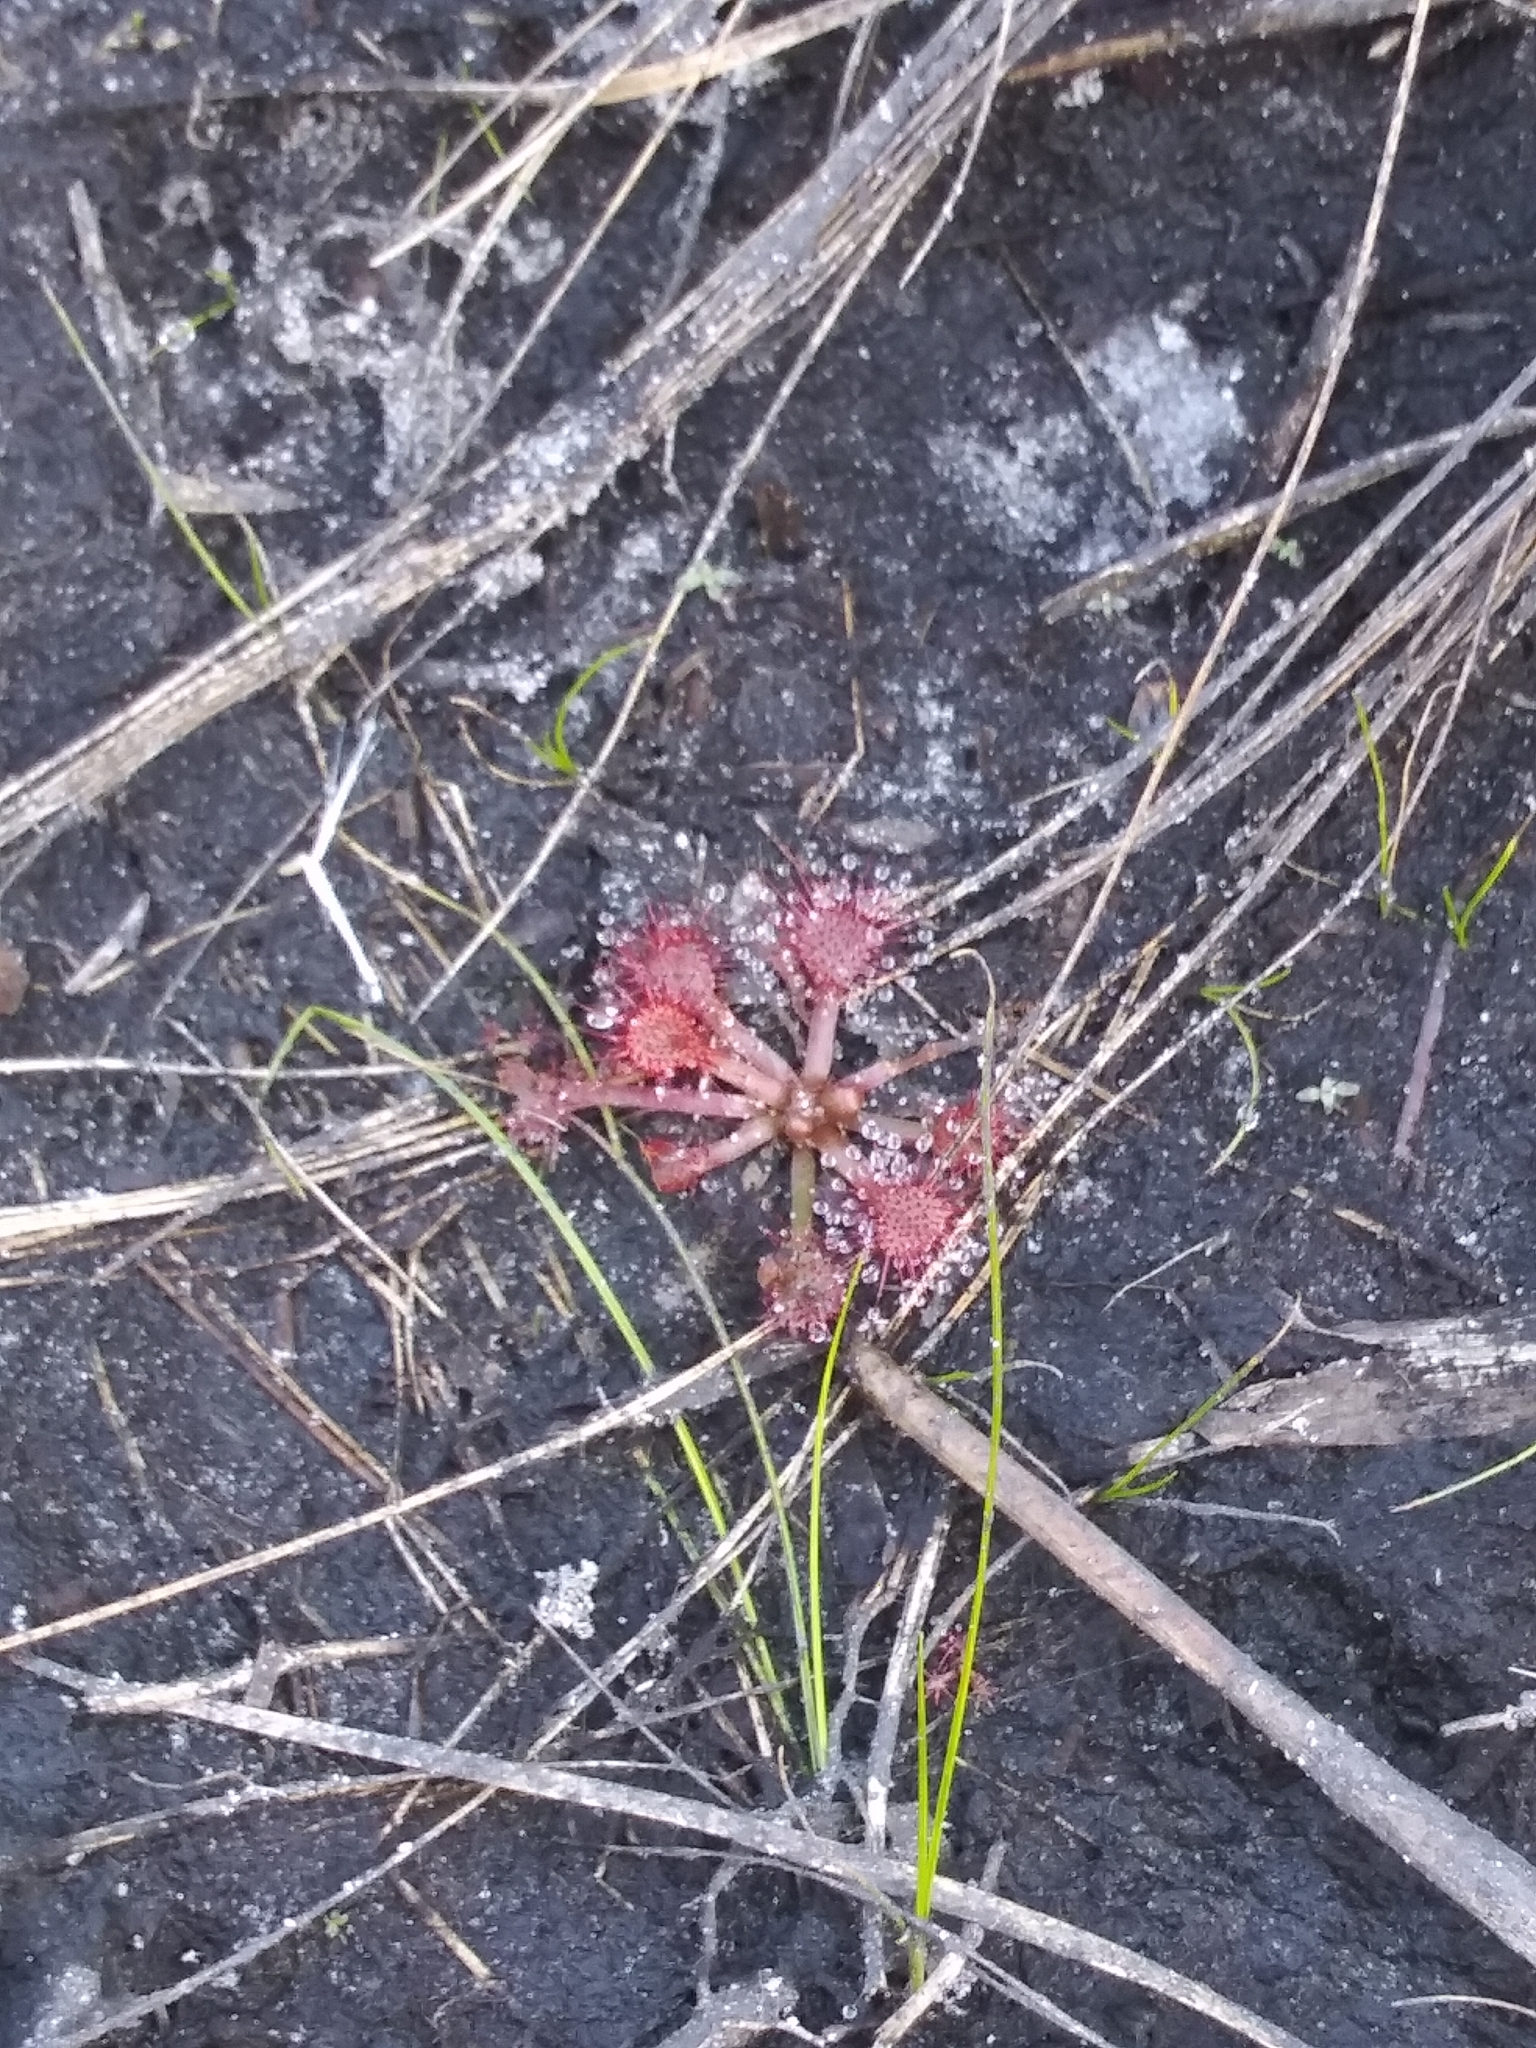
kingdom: Plantae
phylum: Tracheophyta
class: Magnoliopsida
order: Caryophyllales
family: Droseraceae
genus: Drosera
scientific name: Drosera capillaris
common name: Pink sundew
